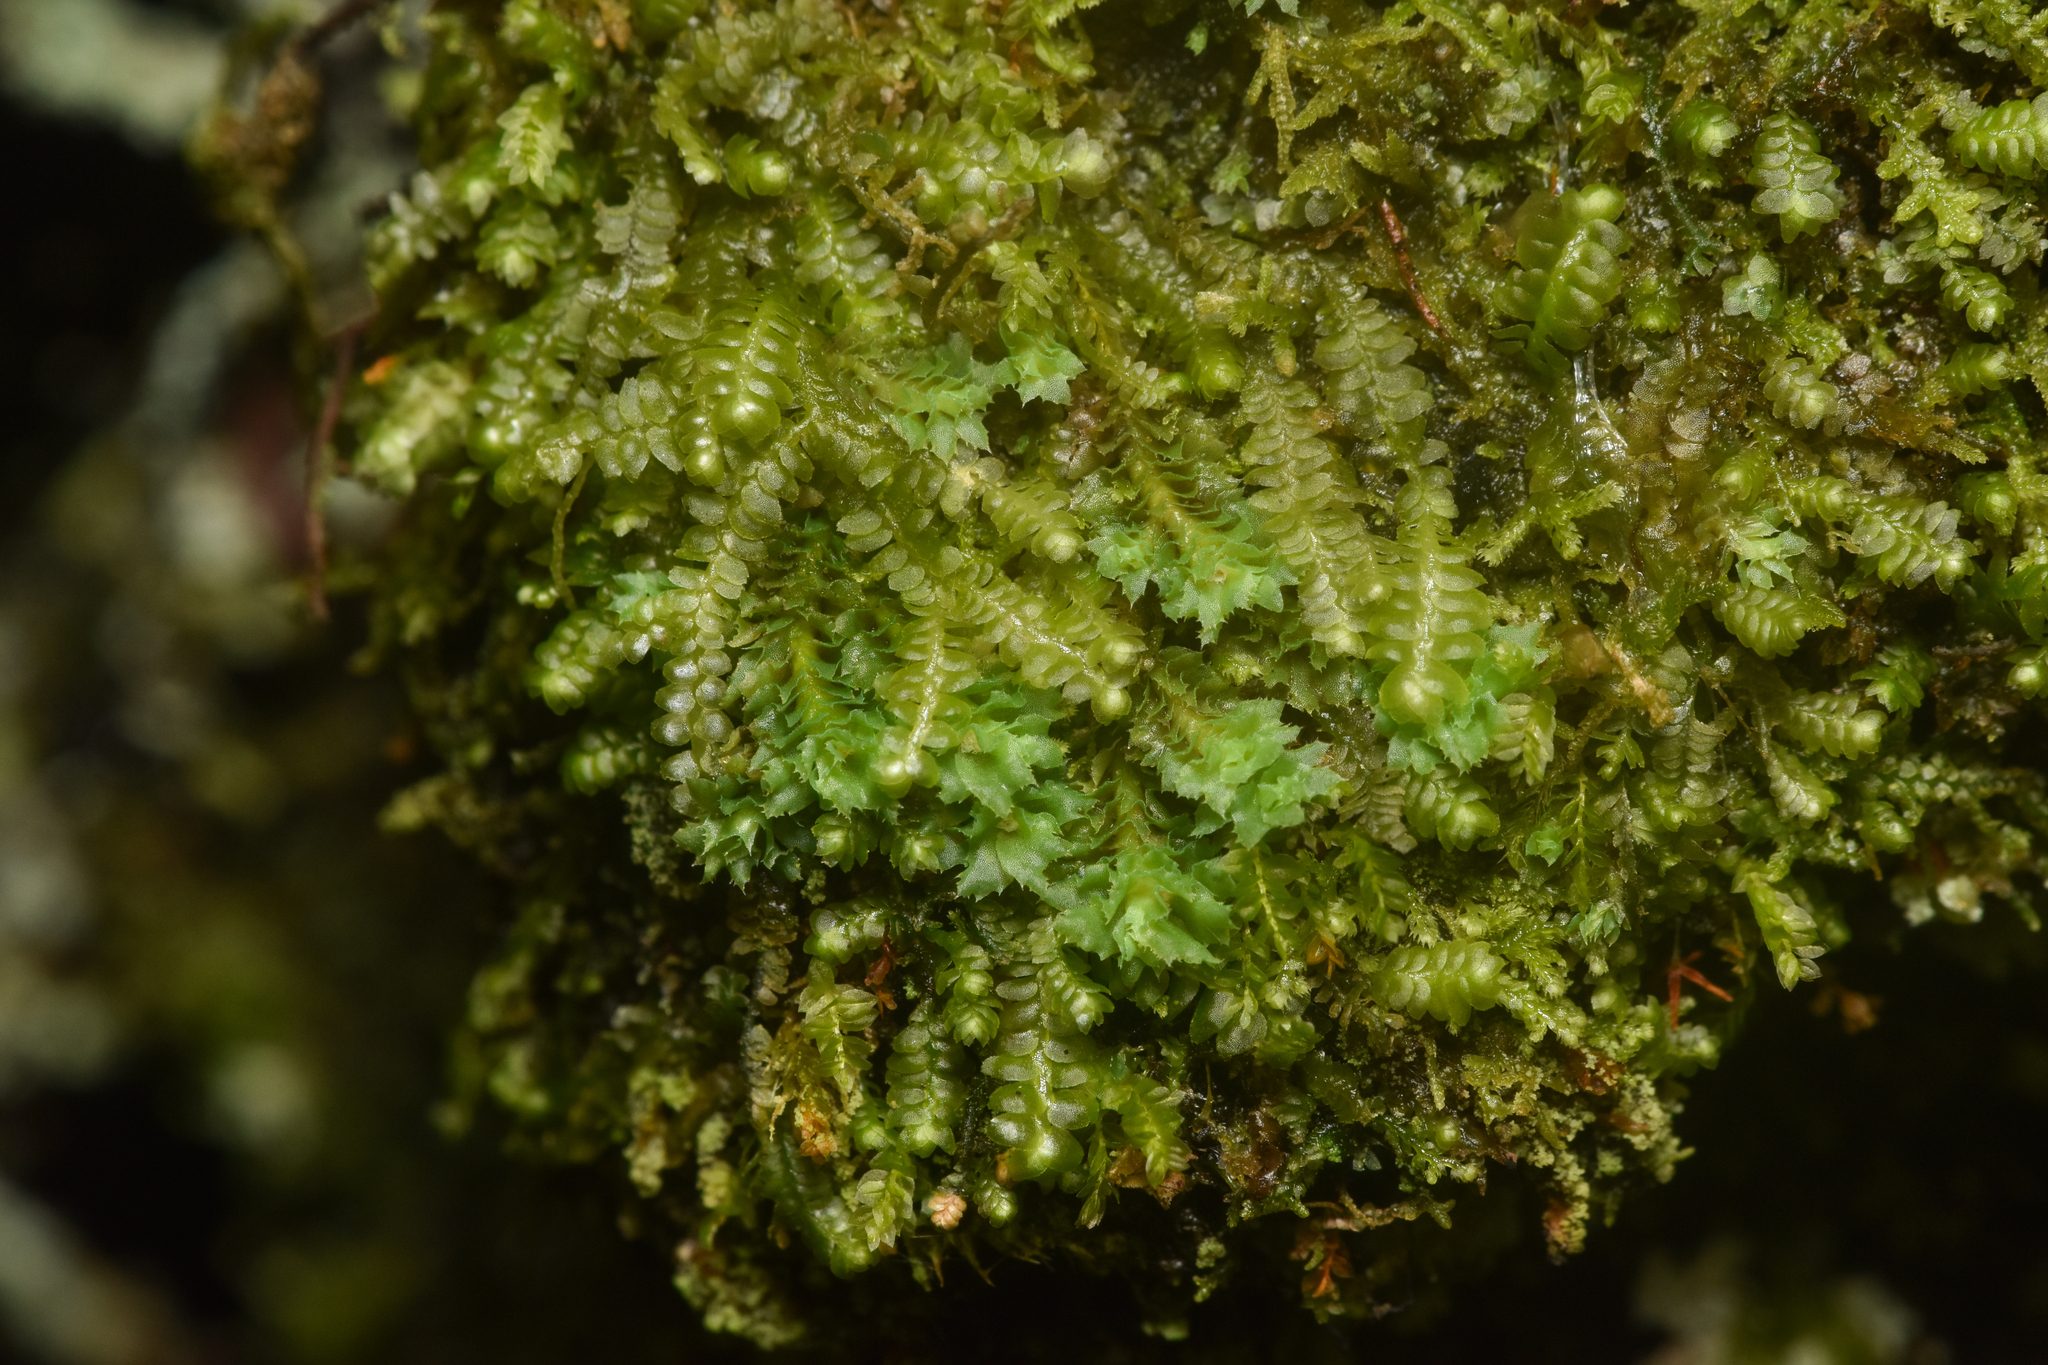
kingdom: Plantae
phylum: Marchantiophyta
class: Jungermanniopsida
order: Jungermanniales
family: Scapaniaceae
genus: Schistochilopsis
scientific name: Schistochilopsis incisa
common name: Jagged notchwort
